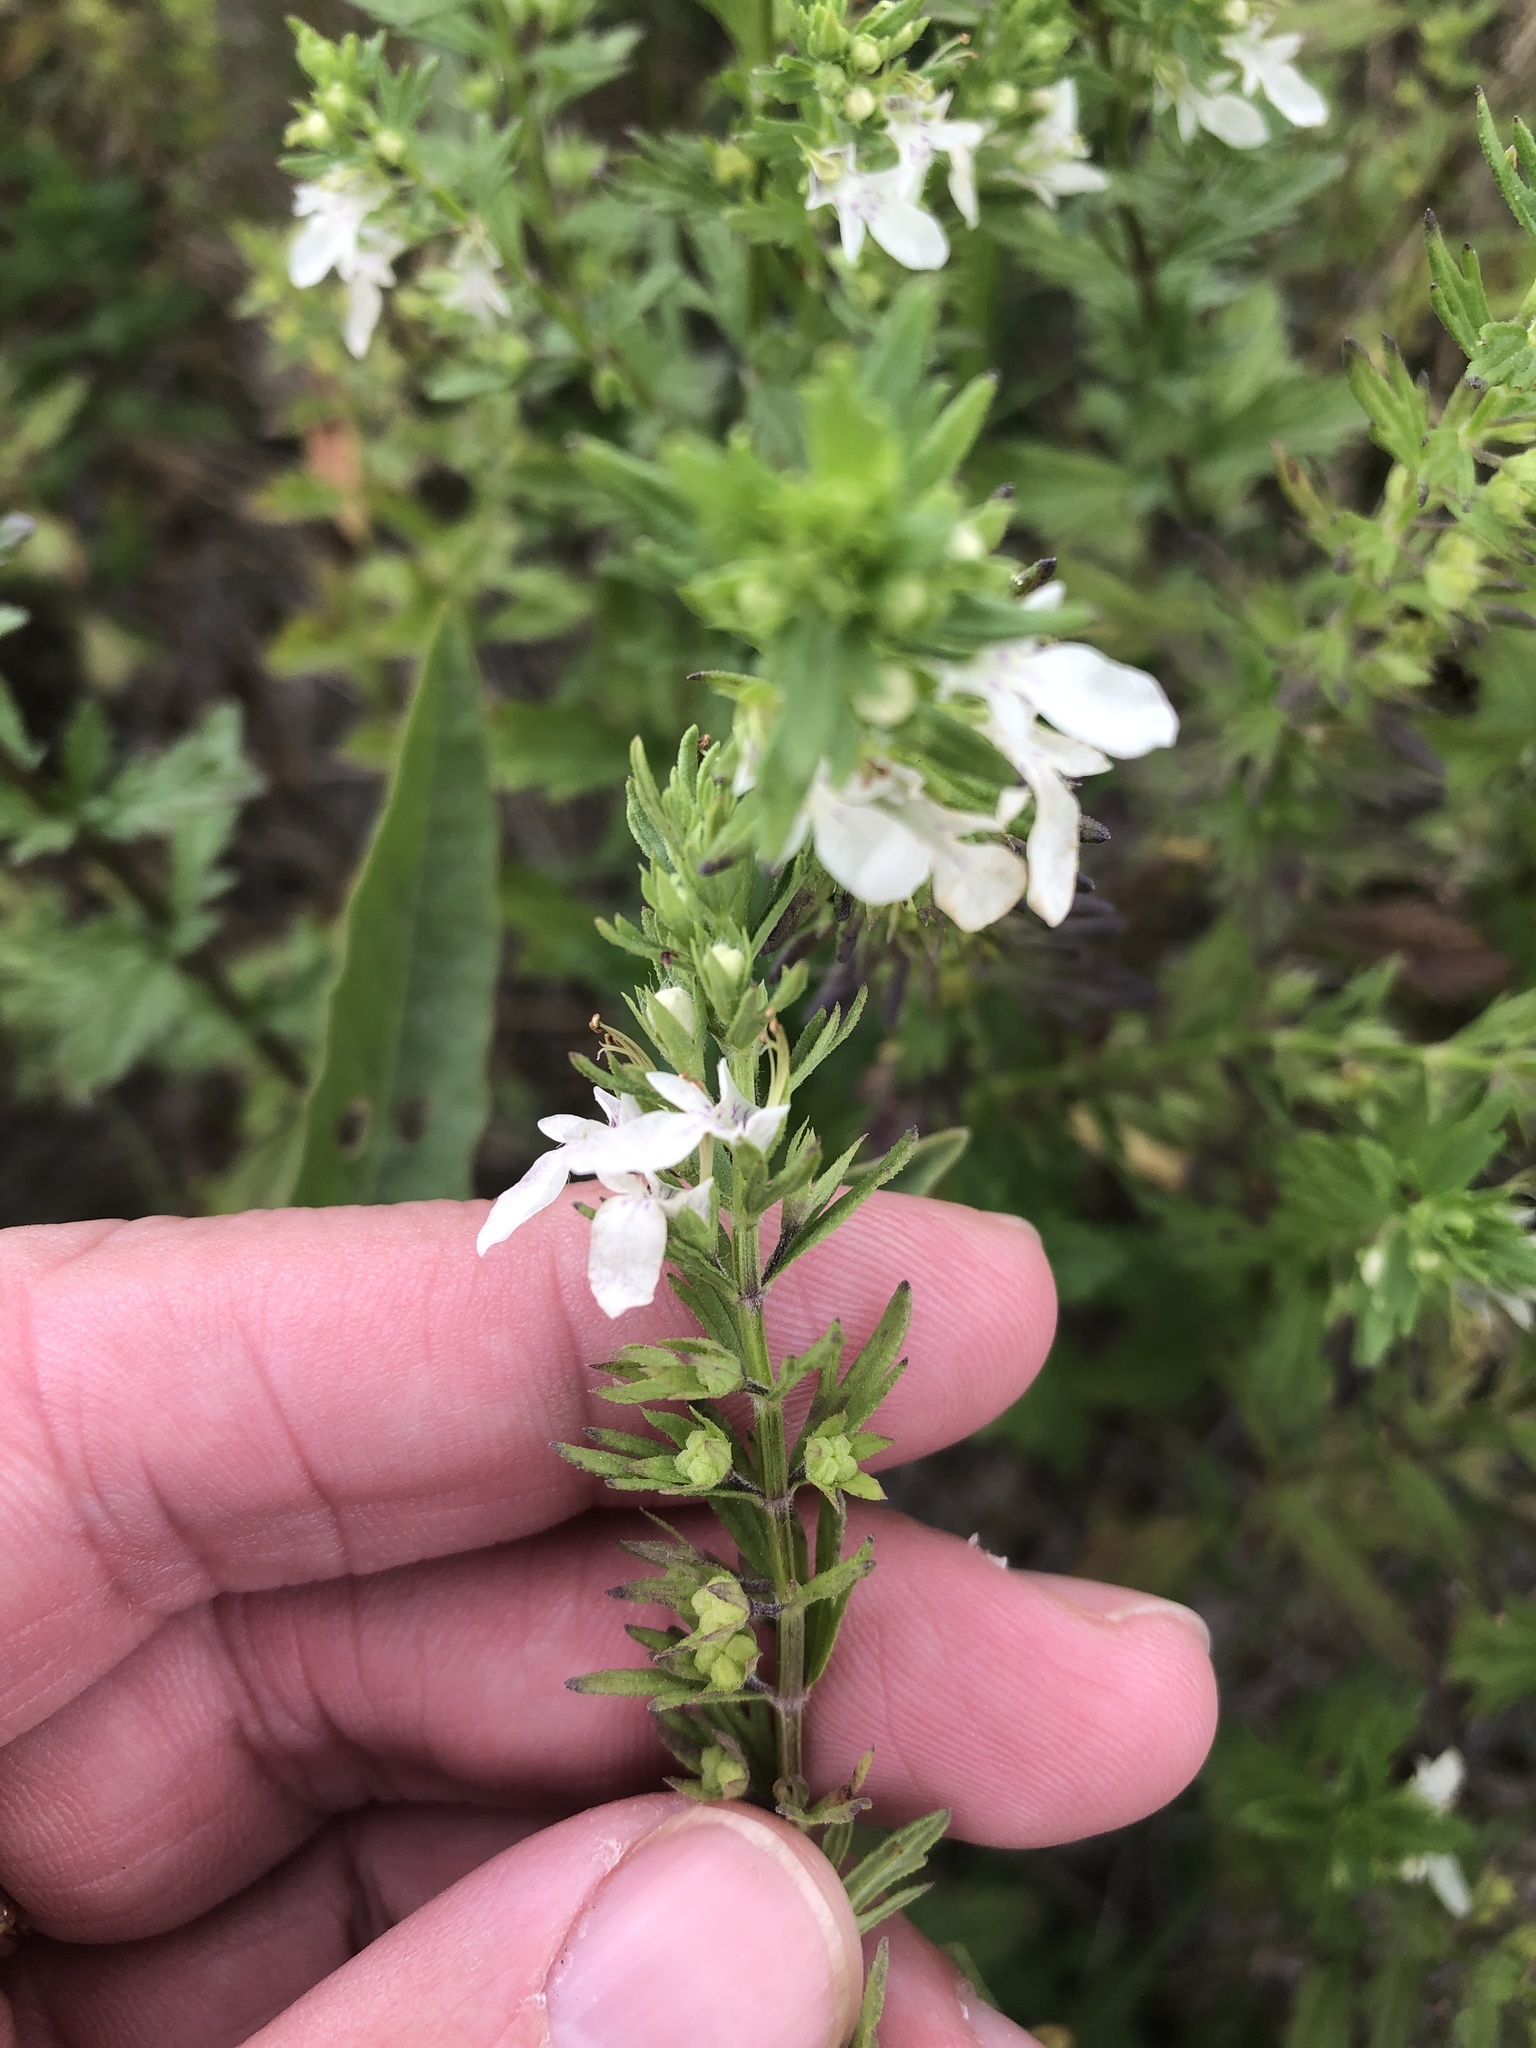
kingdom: Plantae
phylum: Tracheophyta
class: Magnoliopsida
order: Lamiales
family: Lamiaceae
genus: Teucrium
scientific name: Teucrium cubense
